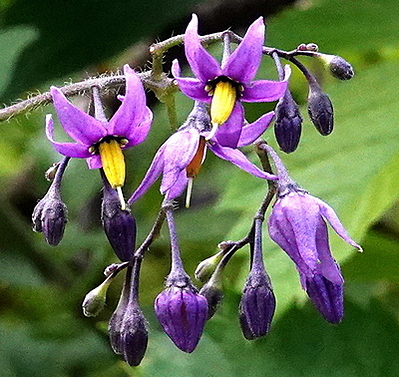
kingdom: Plantae
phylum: Tracheophyta
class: Magnoliopsida
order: Solanales
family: Solanaceae
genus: Solanum
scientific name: Solanum dulcamara
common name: Climbing nightshade
